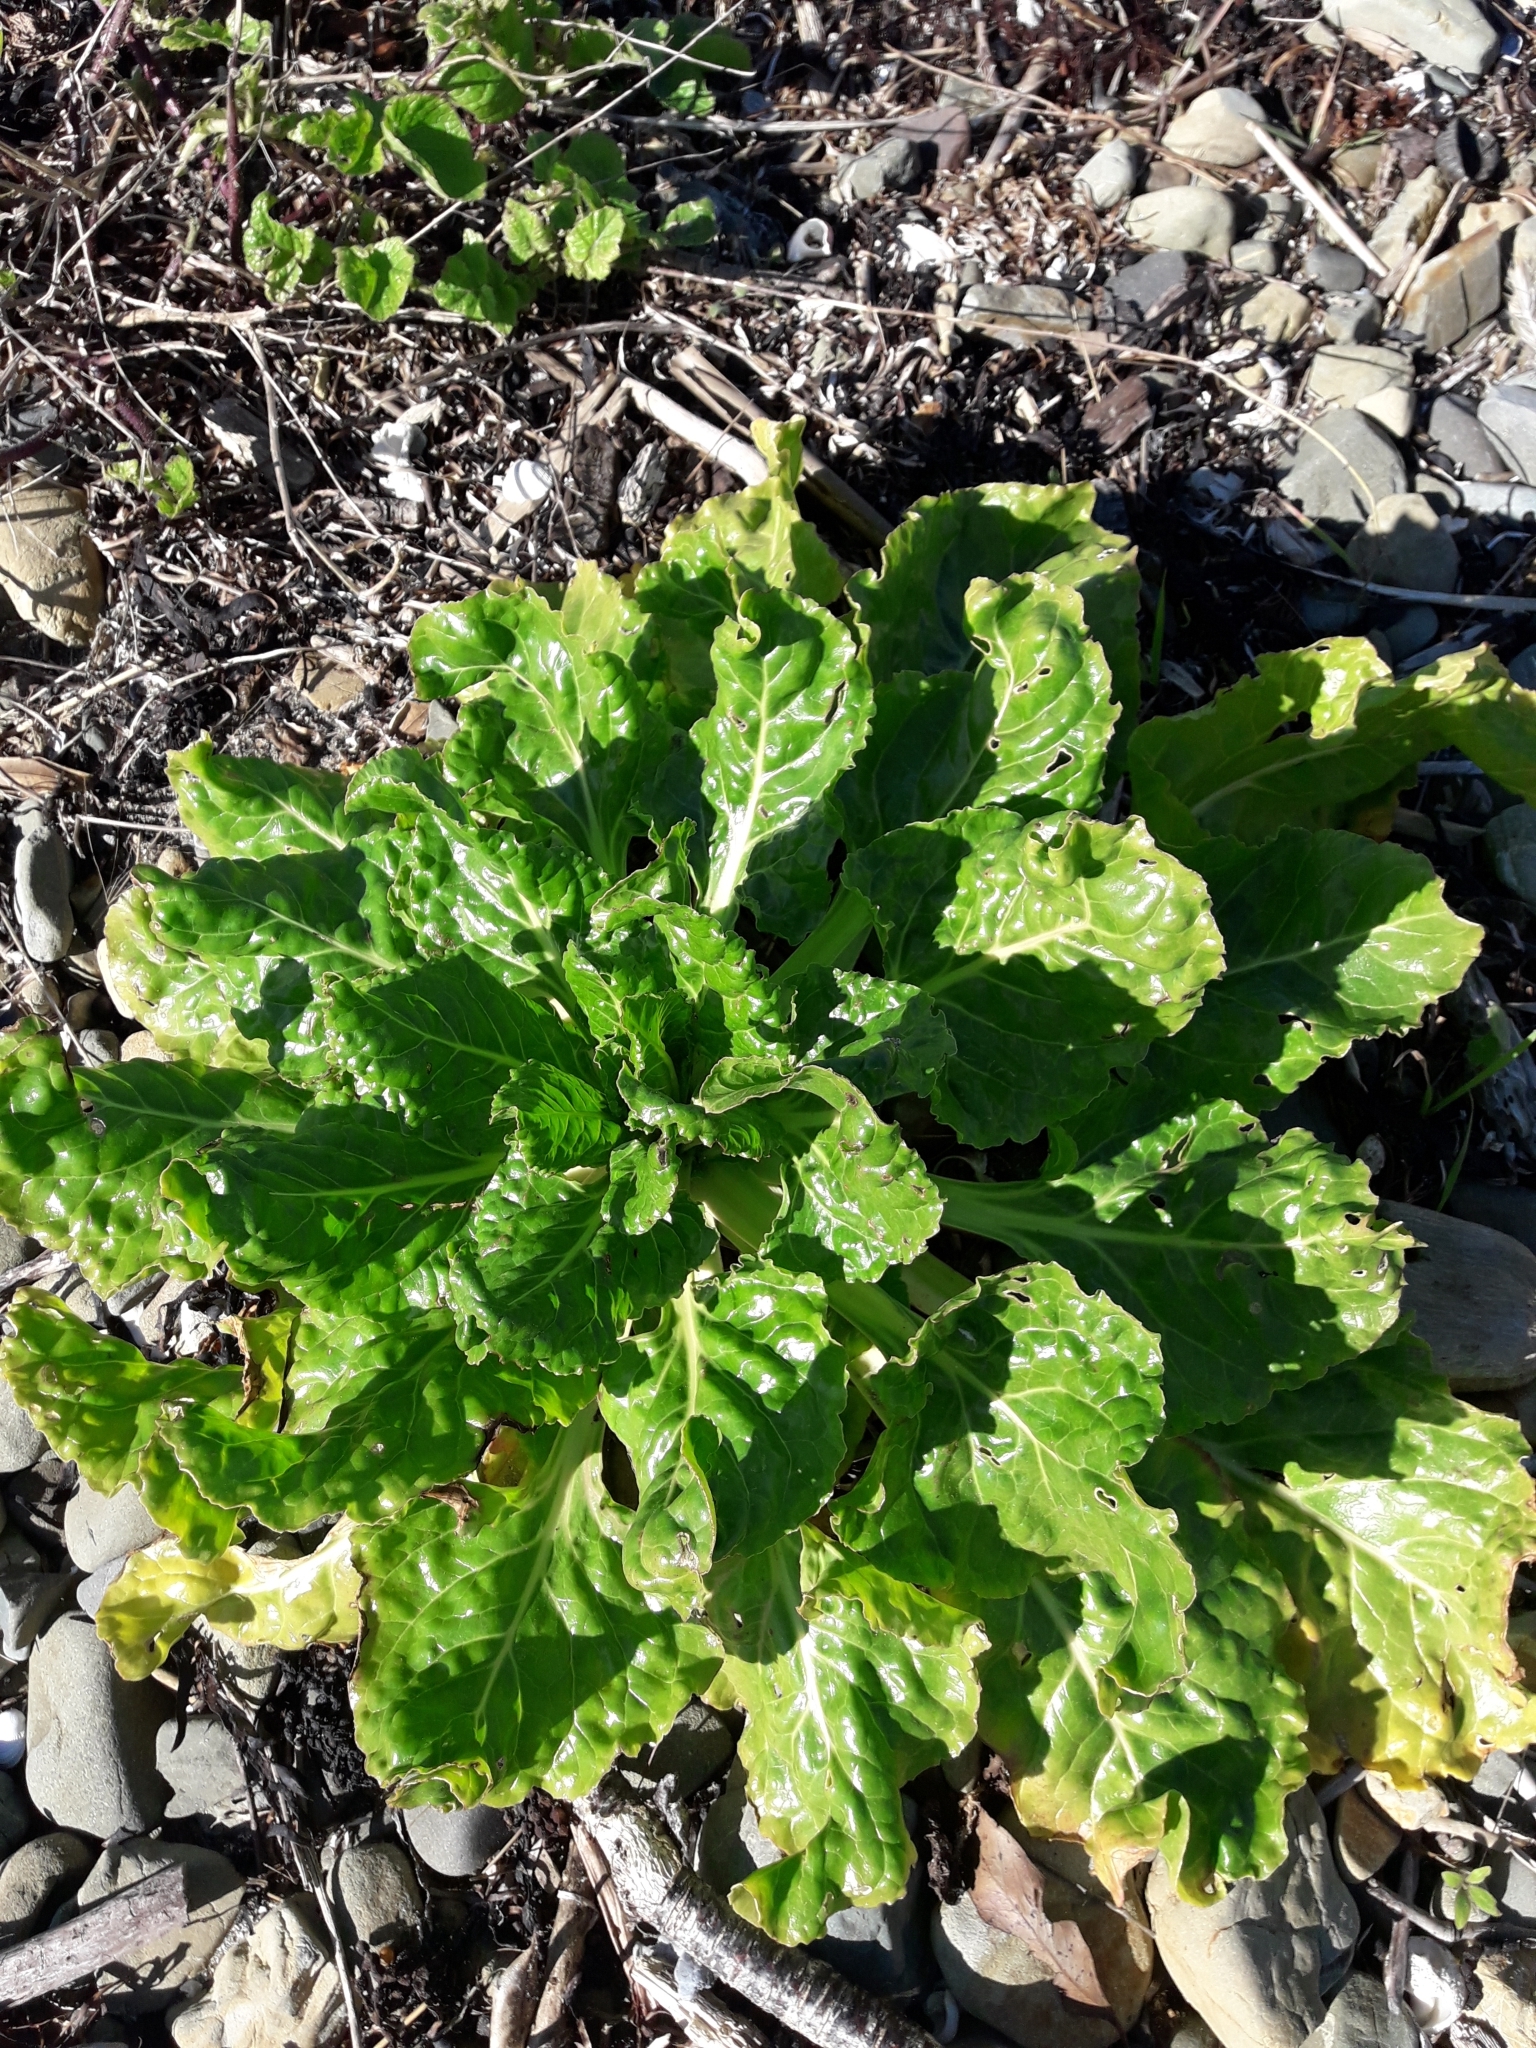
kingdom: Plantae
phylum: Tracheophyta
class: Magnoliopsida
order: Caryophyllales
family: Amaranthaceae
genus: Beta
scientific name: Beta vulgaris
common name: Beet
